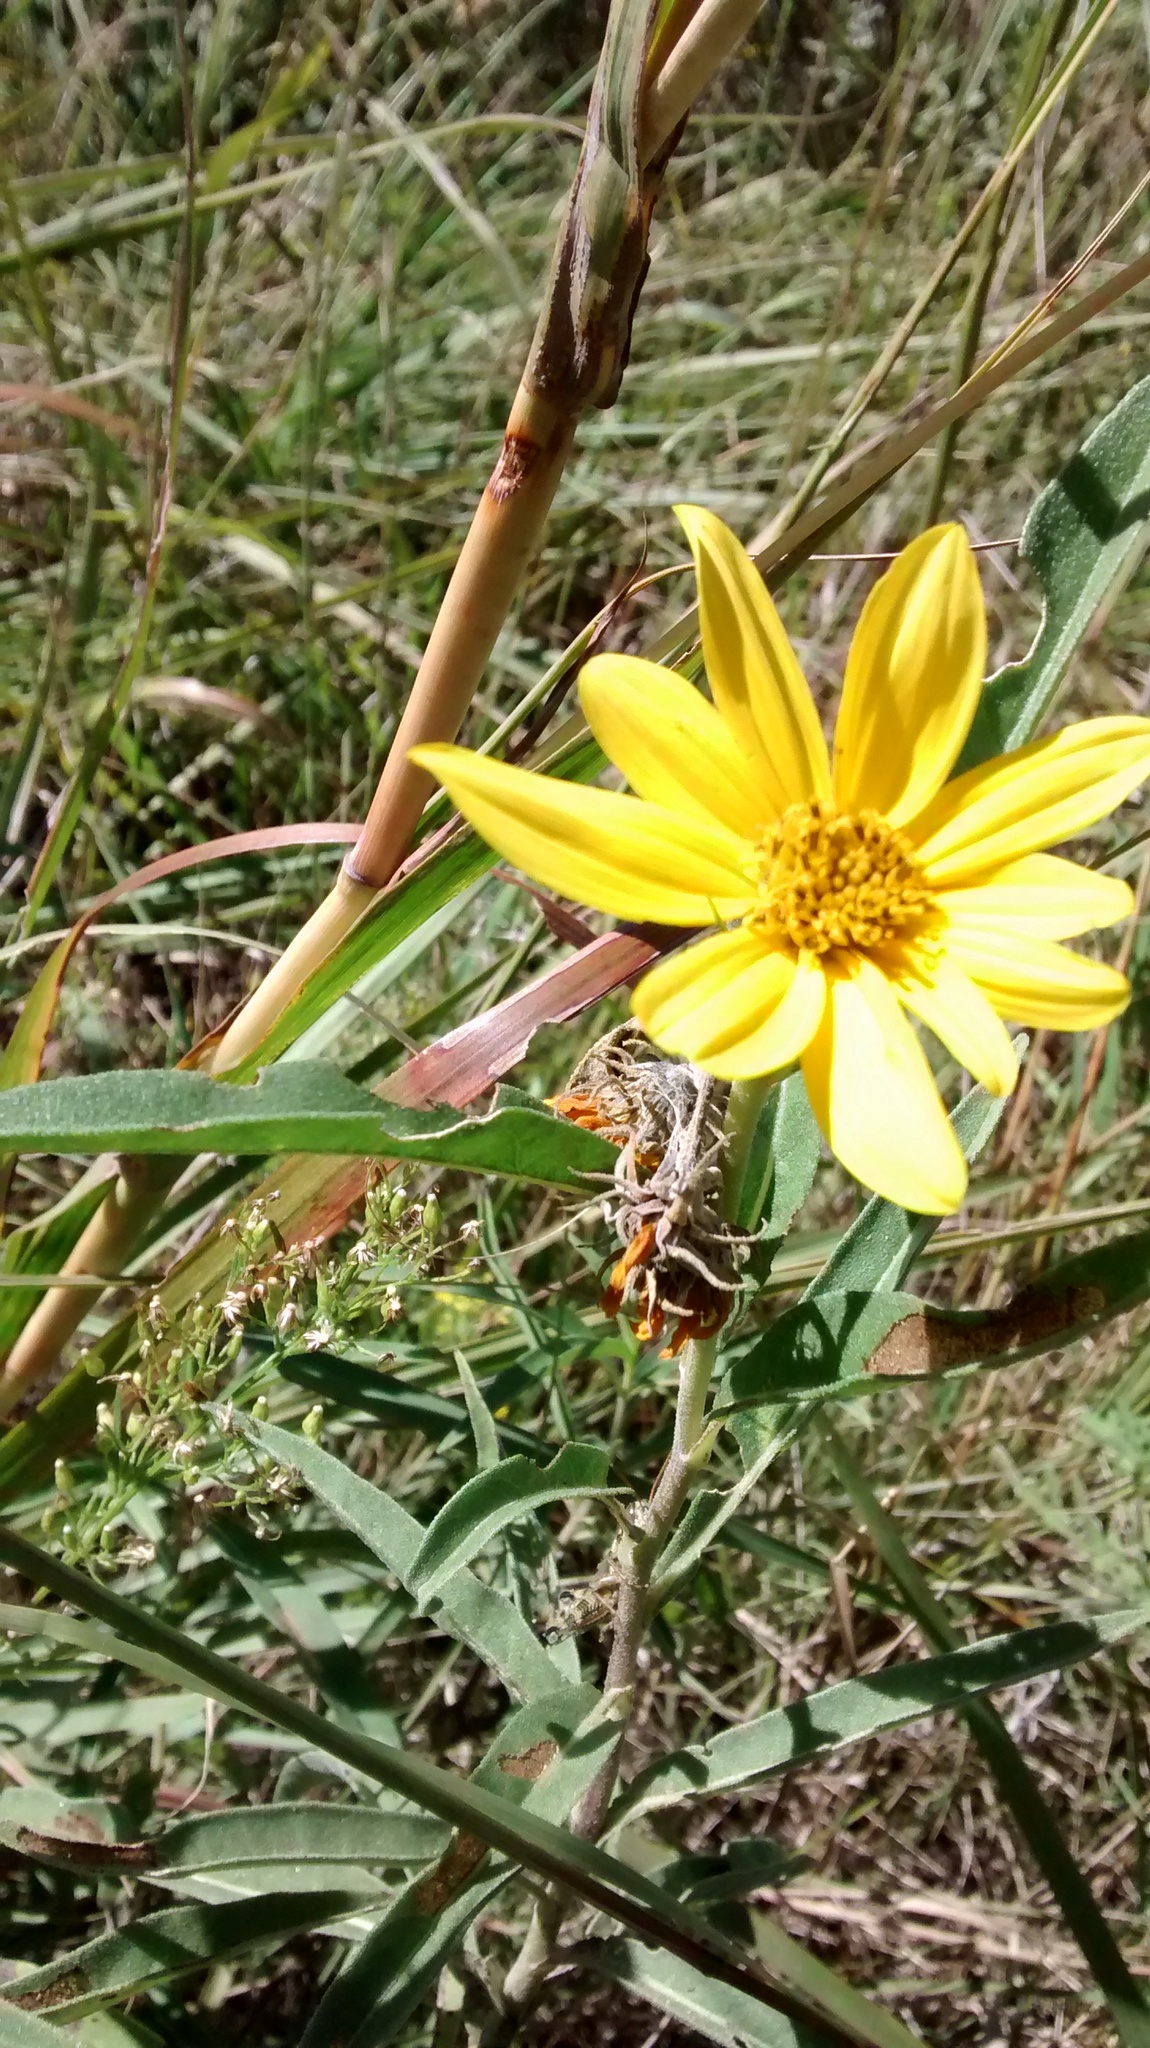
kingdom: Plantae
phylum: Tracheophyta
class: Magnoliopsida
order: Asterales
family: Asteraceae
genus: Helianthus
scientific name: Helianthus maximiliani
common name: Maximilian's sunflower
